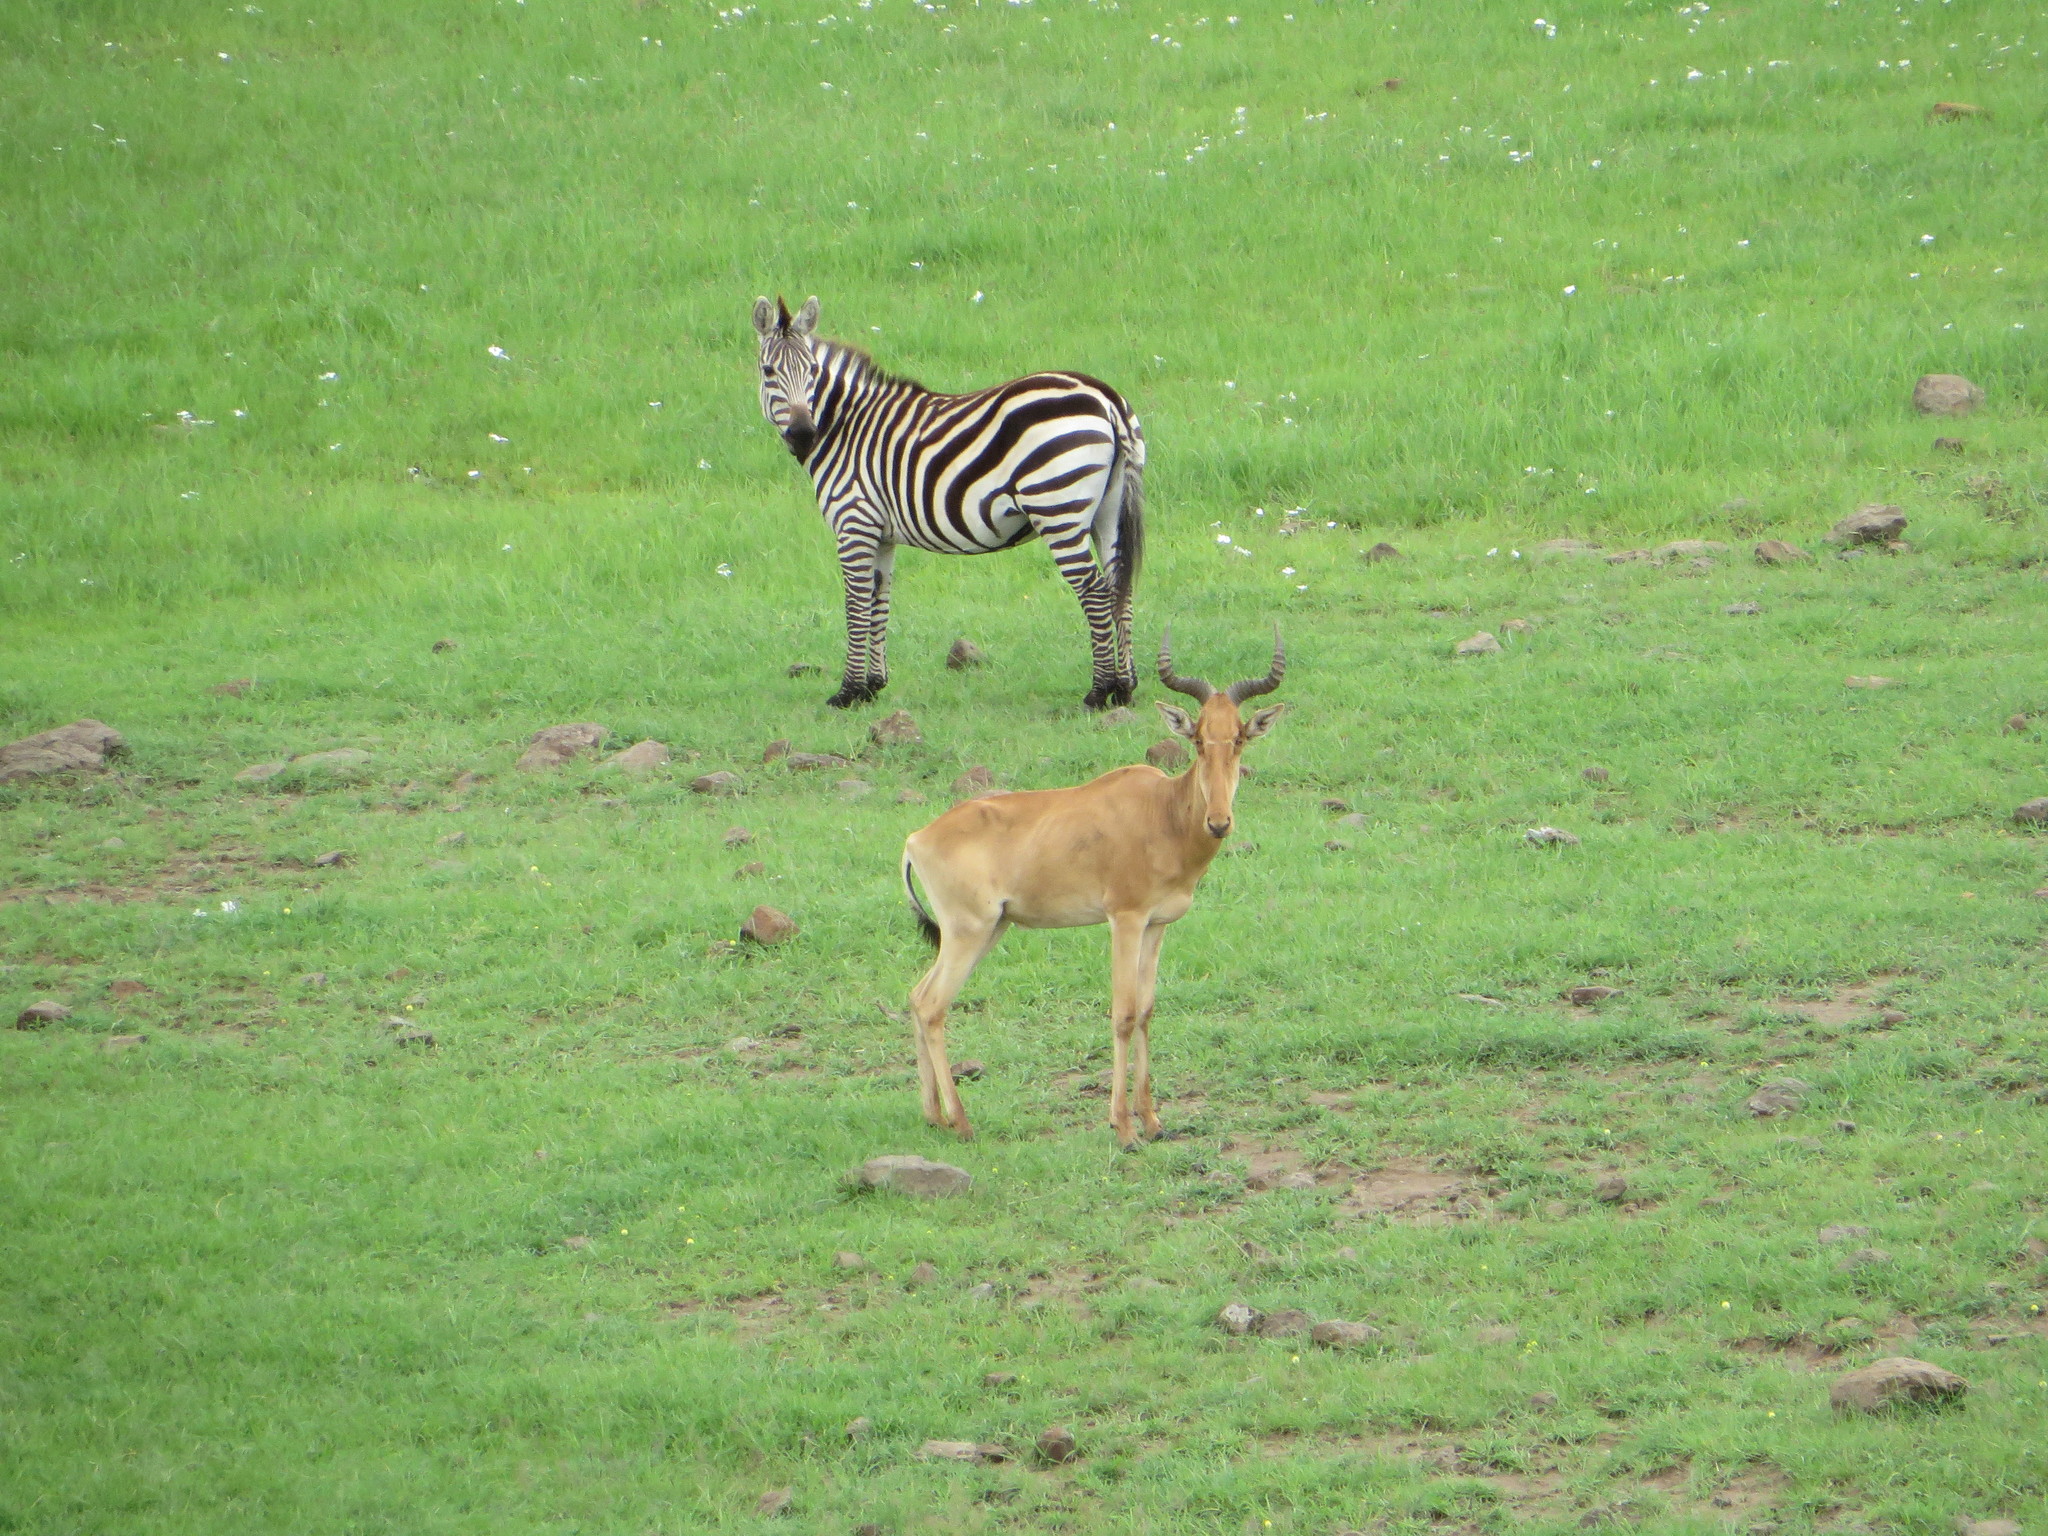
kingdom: Animalia
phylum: Chordata
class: Mammalia
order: Artiodactyla
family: Bovidae
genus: Alcelaphus
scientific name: Alcelaphus buselaphus
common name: Hartebeest
